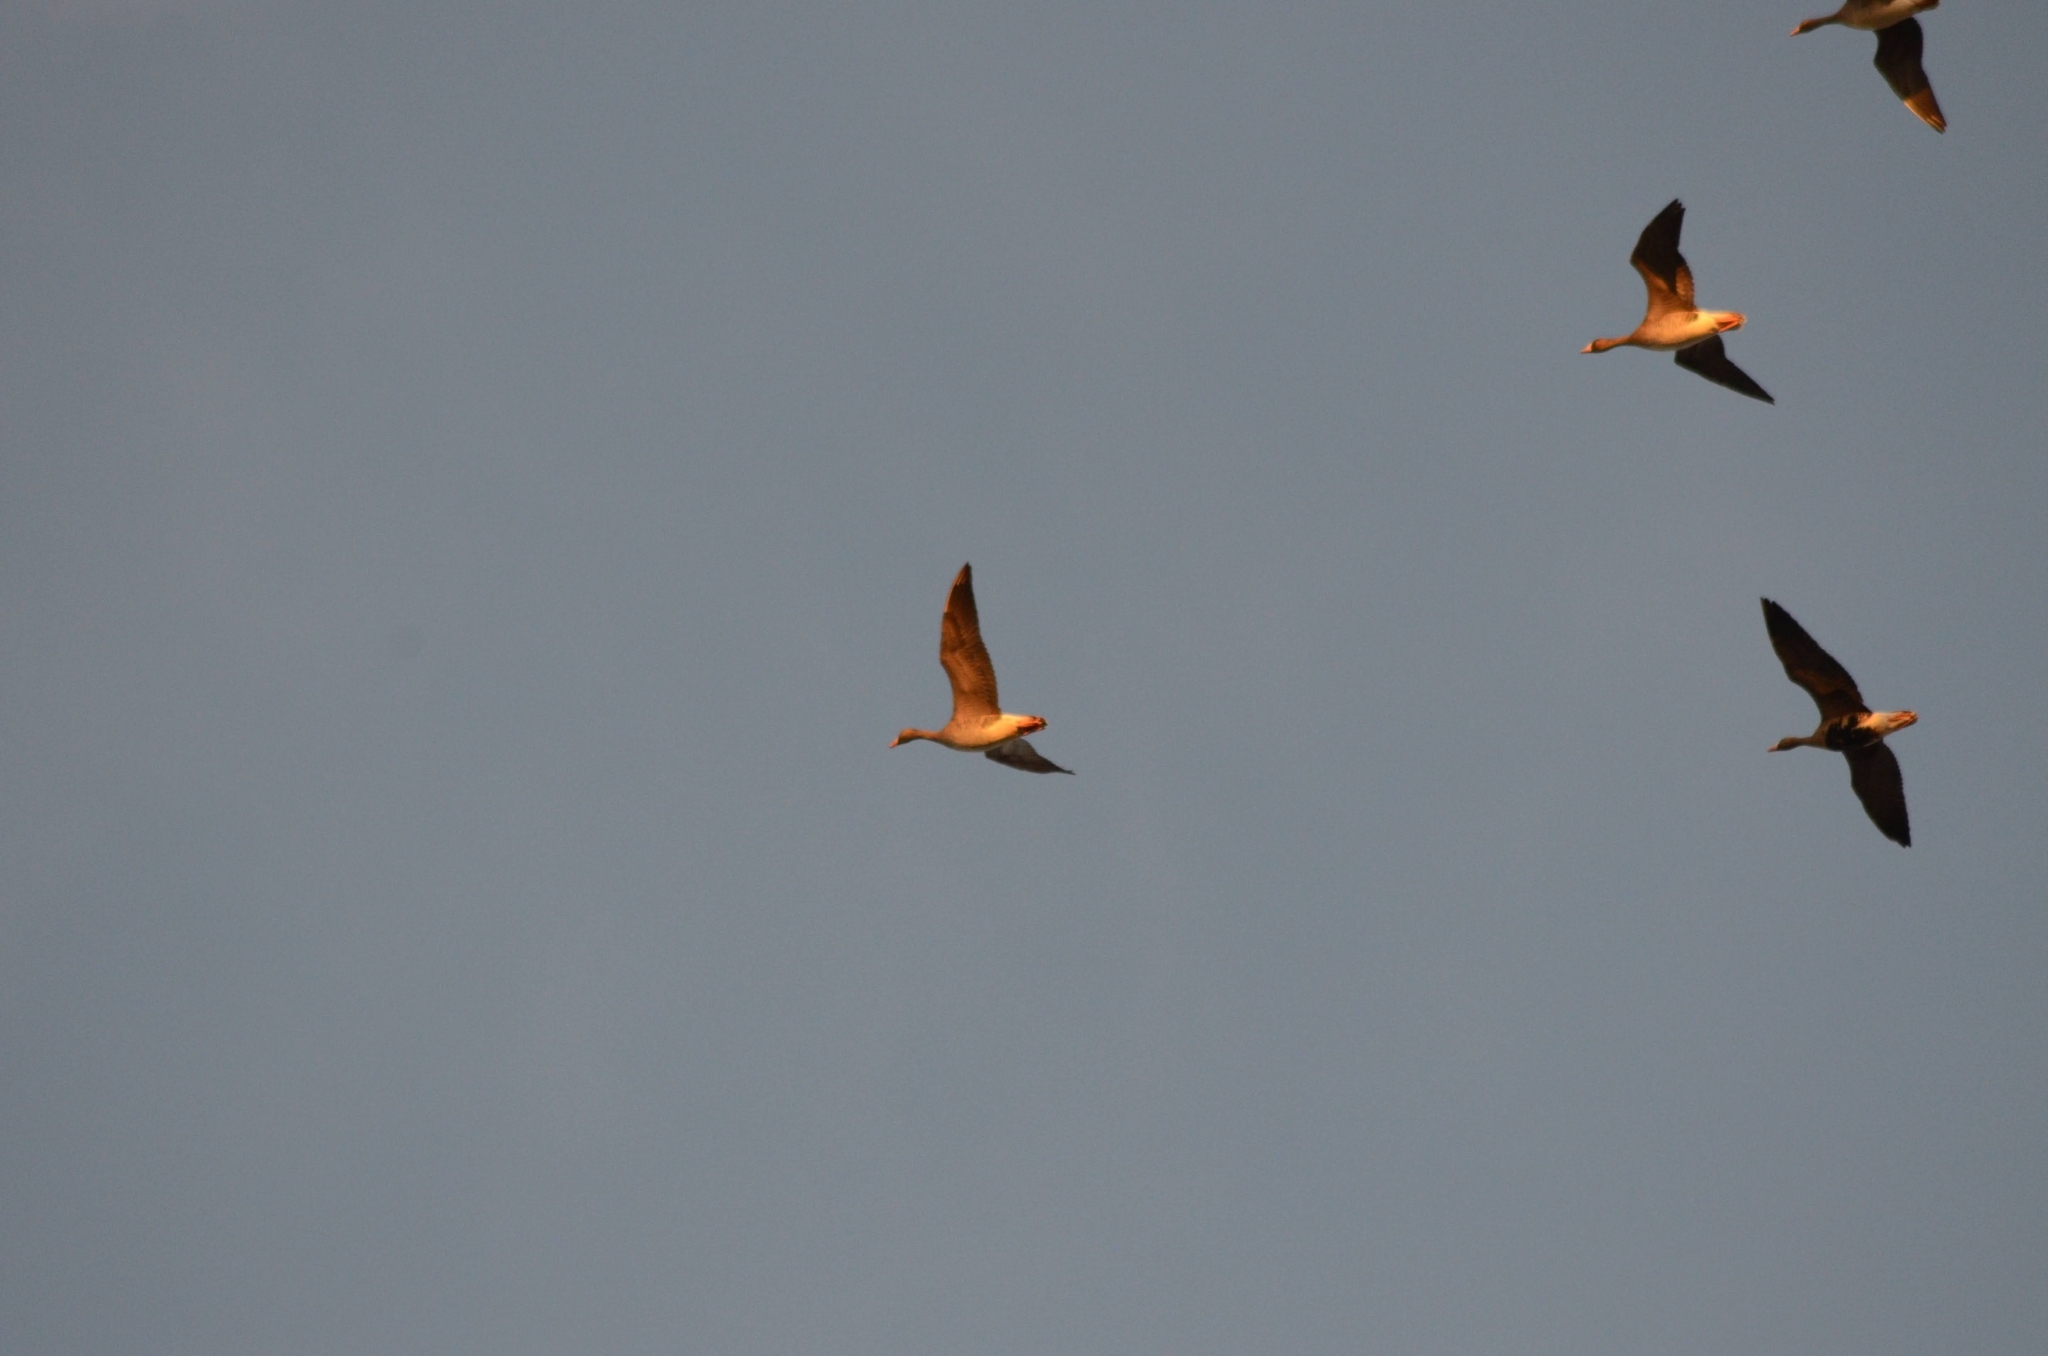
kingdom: Animalia
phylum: Chordata
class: Aves
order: Anseriformes
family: Anatidae
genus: Anser
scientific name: Anser albifrons
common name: Greater white-fronted goose
